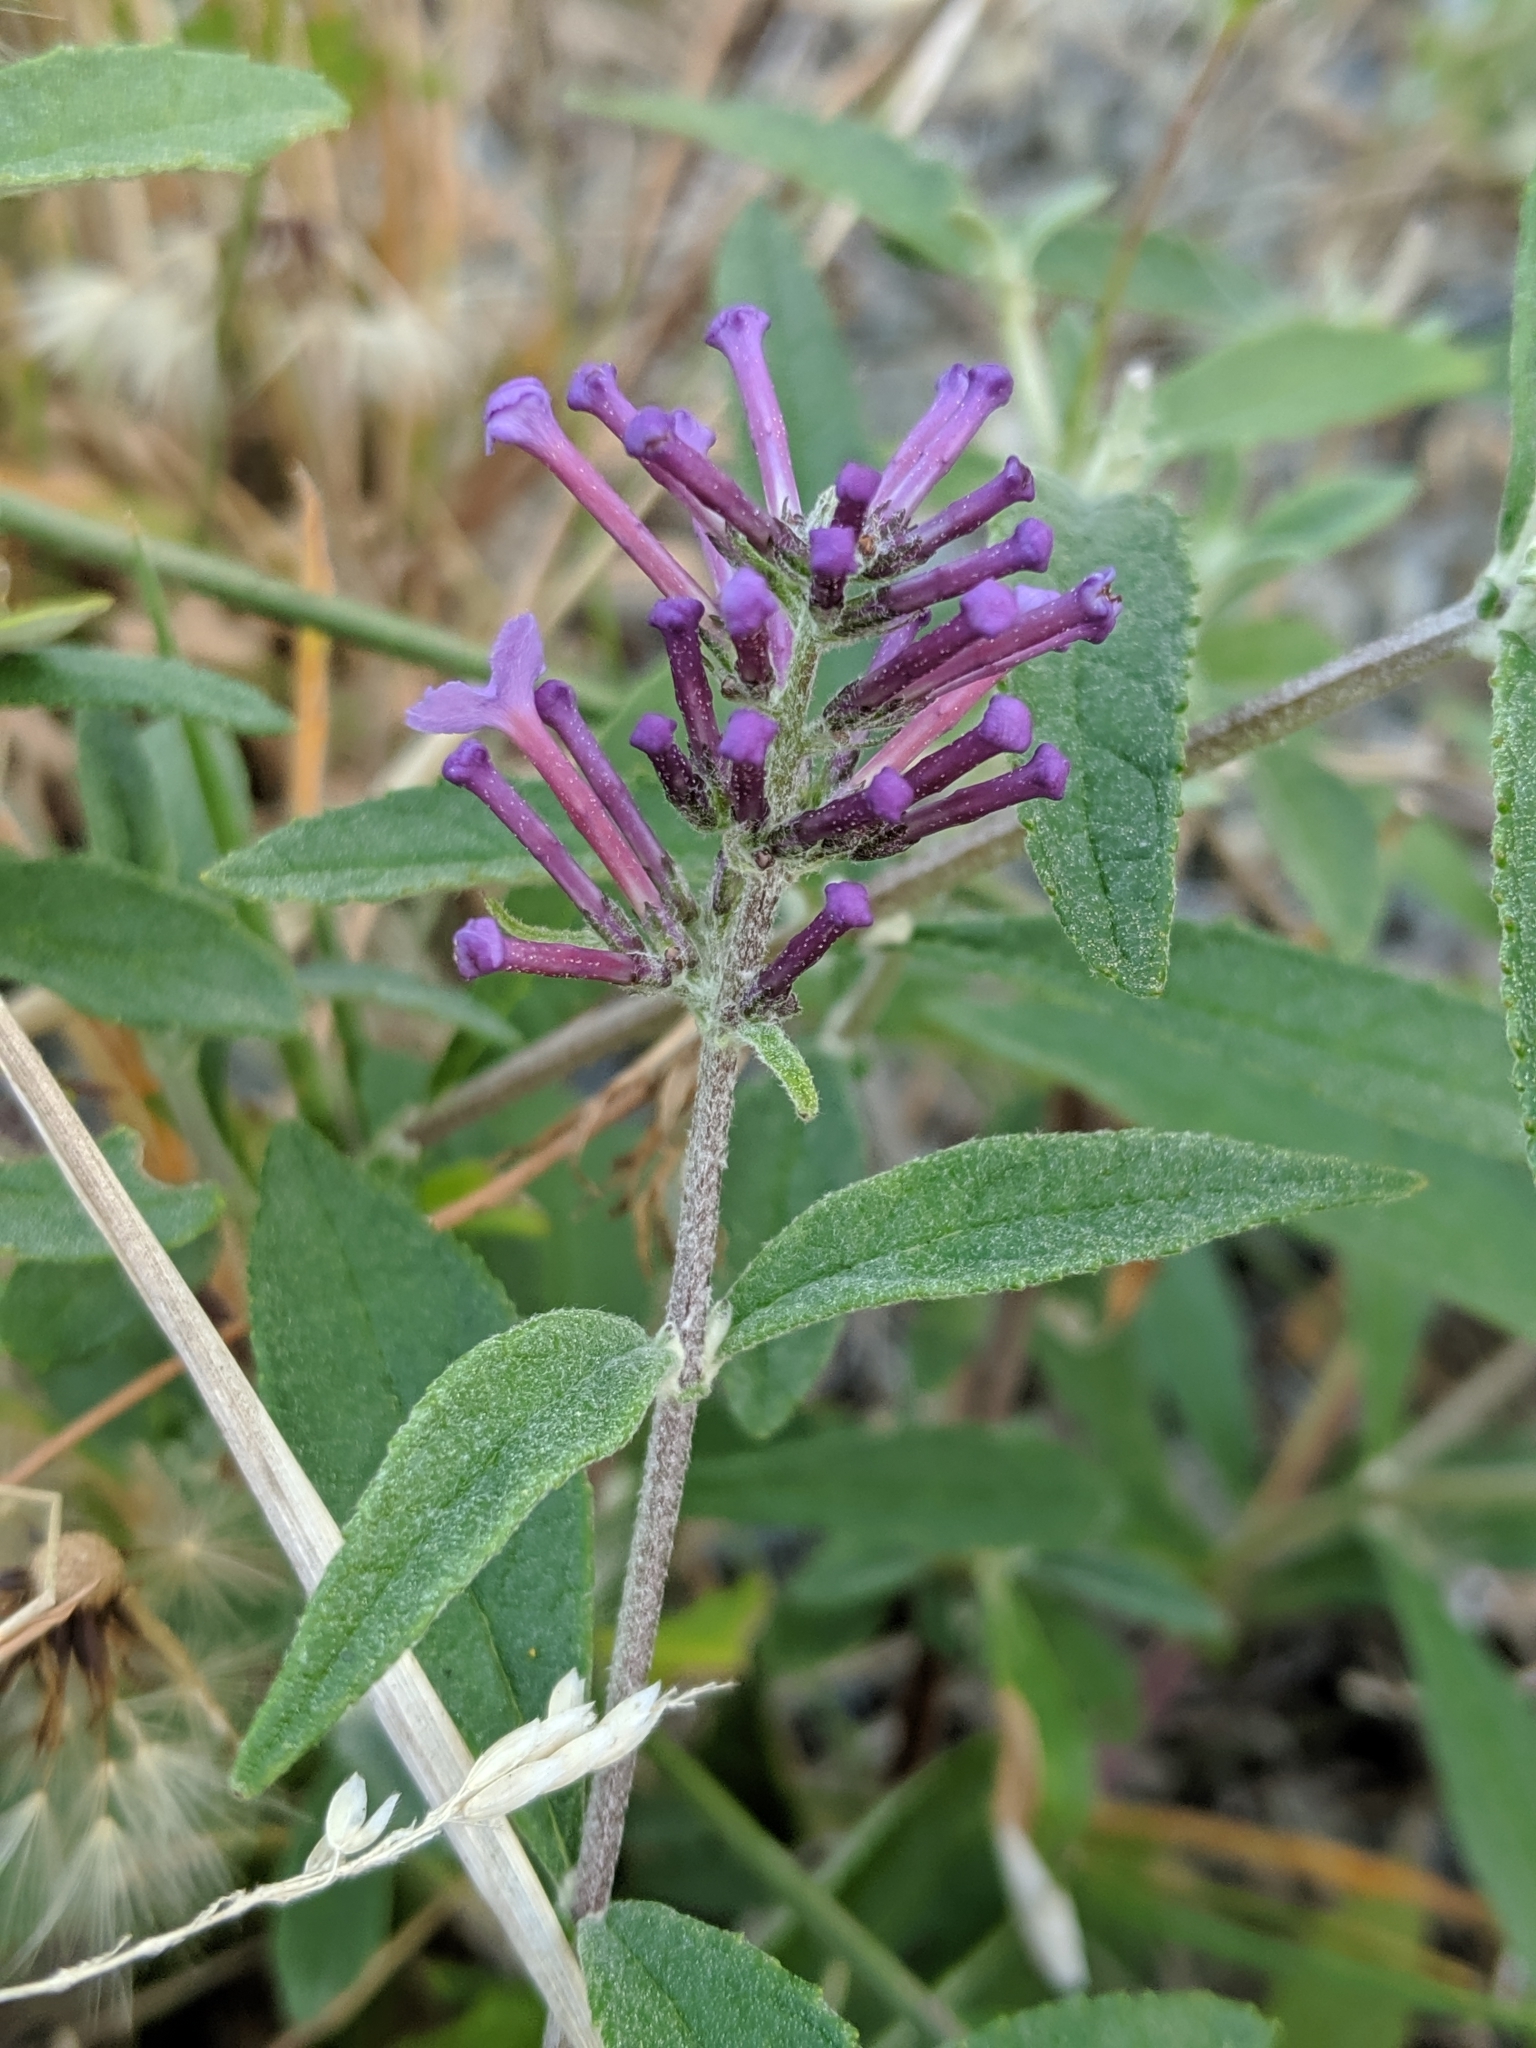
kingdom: Plantae
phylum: Tracheophyta
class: Magnoliopsida
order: Lamiales
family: Scrophulariaceae
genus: Buddleja
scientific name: Buddleja davidii
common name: Butterfly-bush
